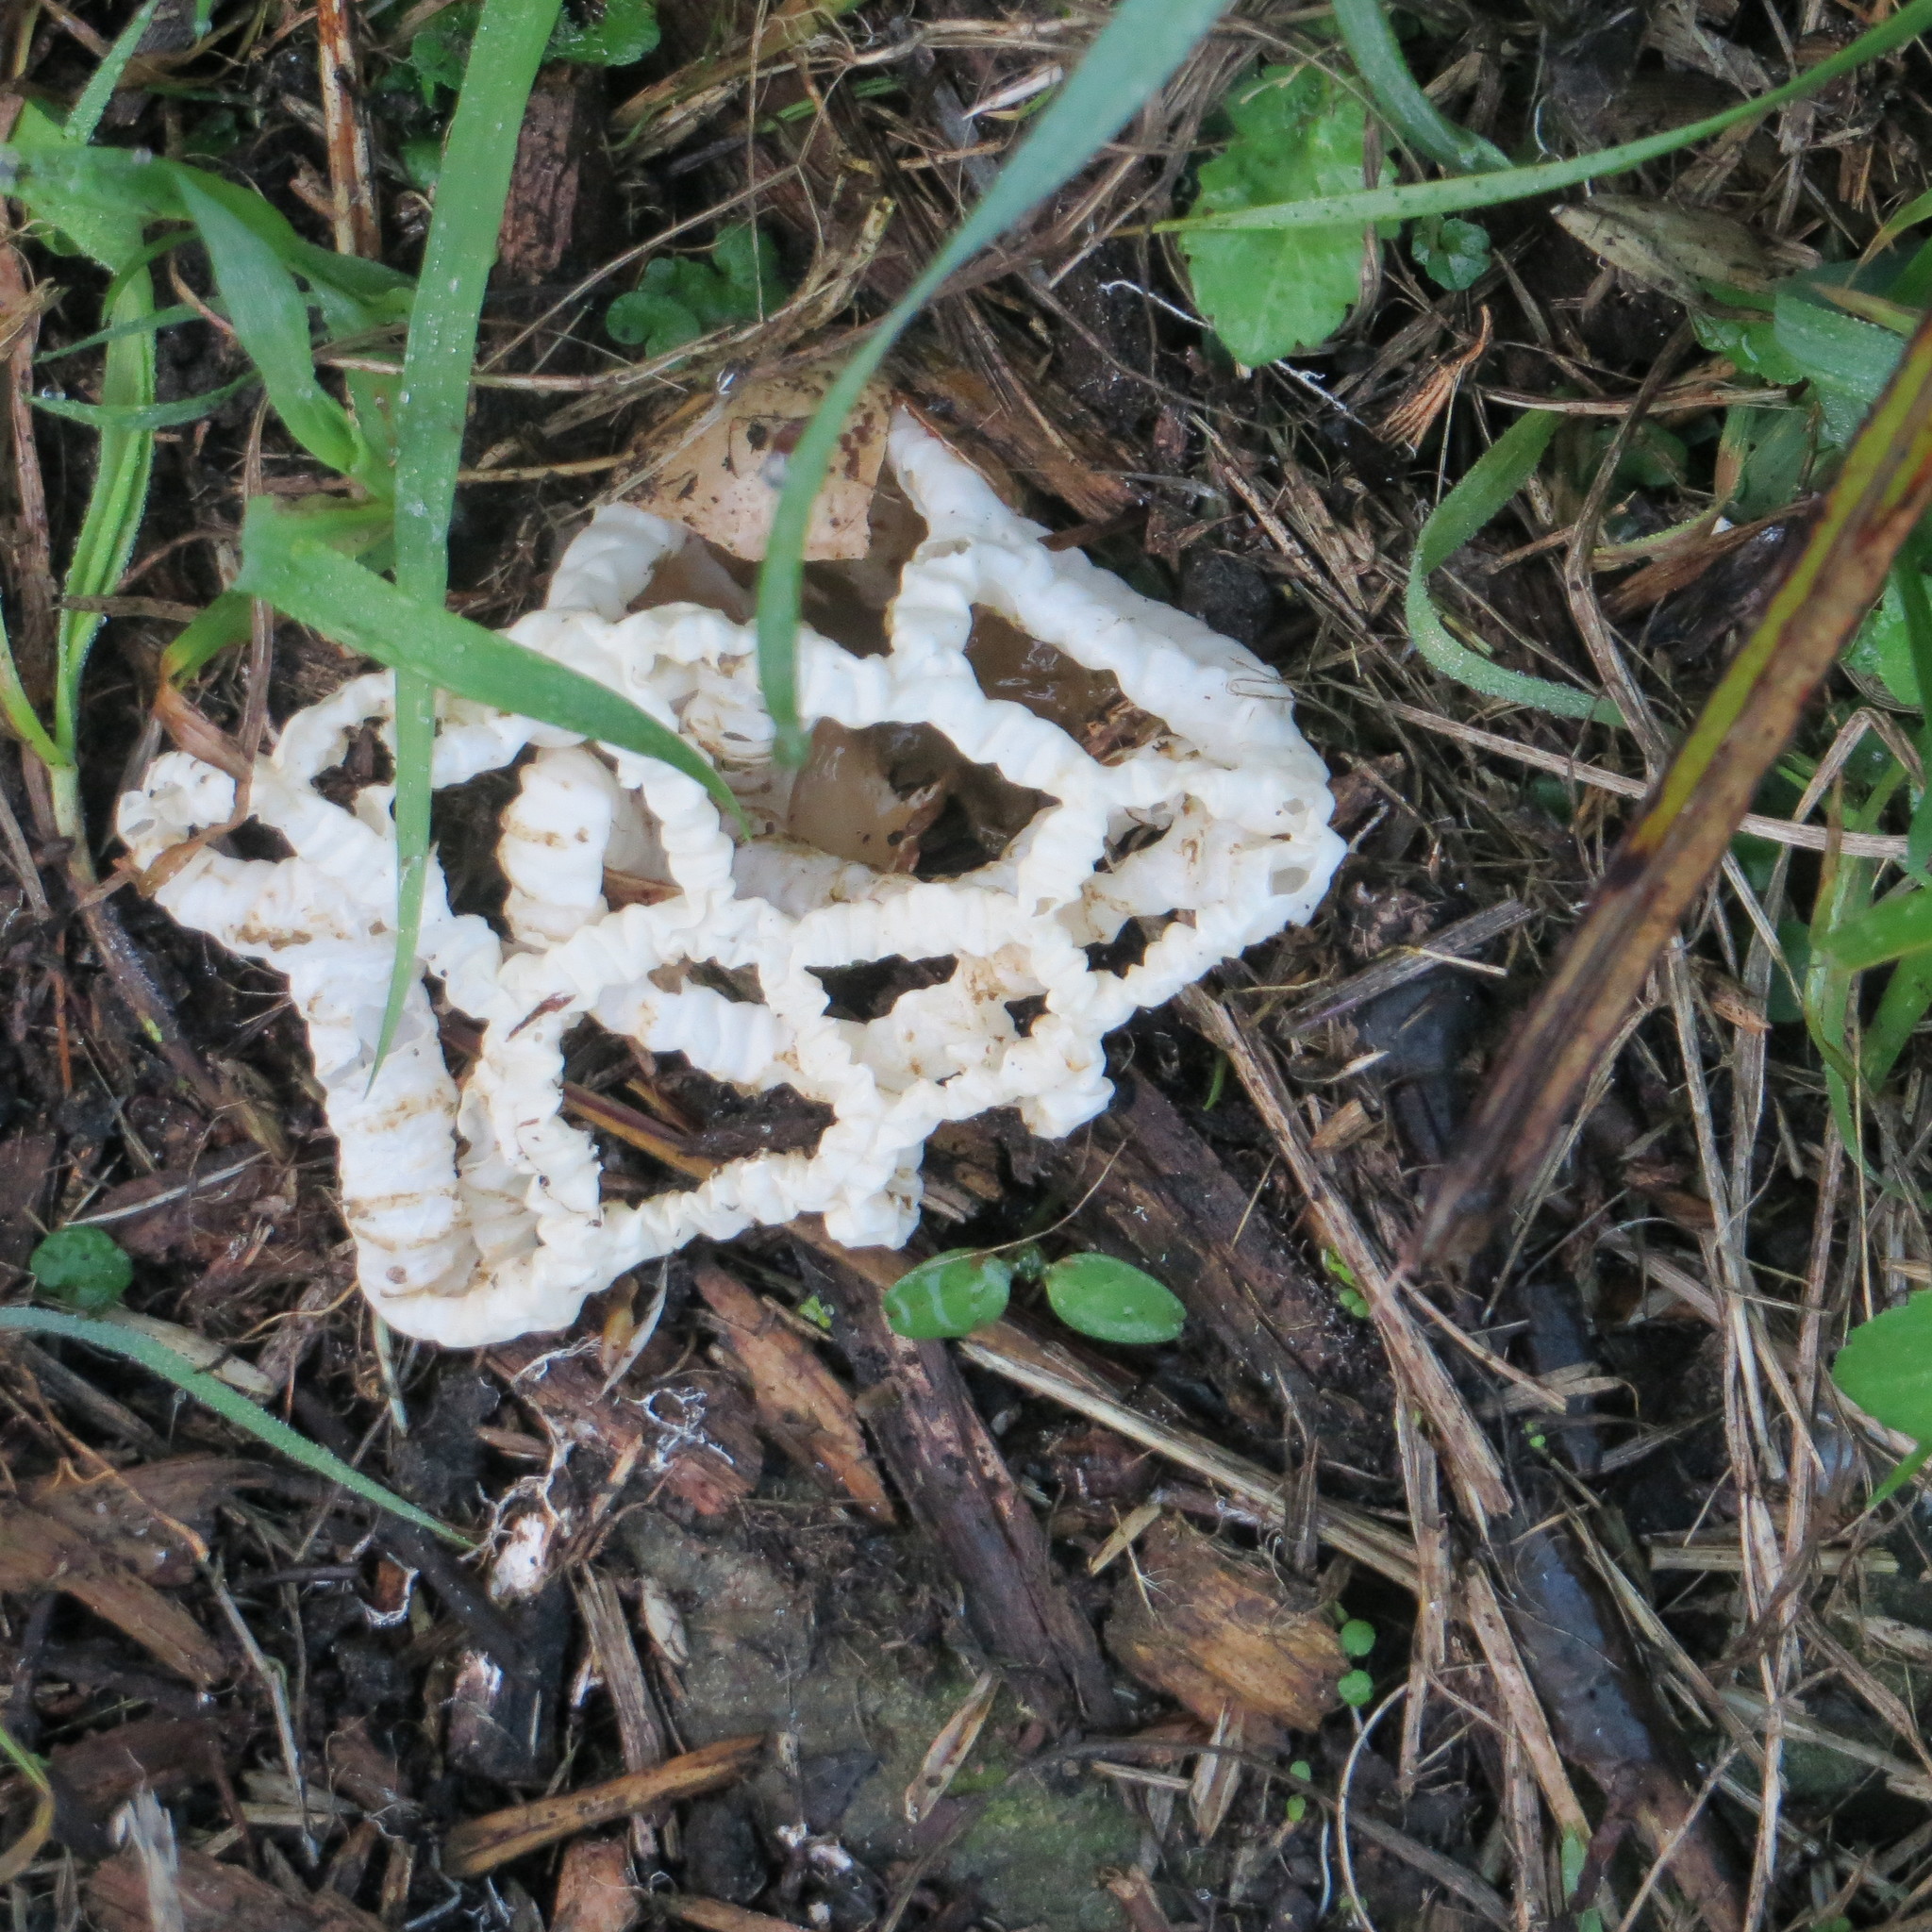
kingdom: Fungi
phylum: Basidiomycota
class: Agaricomycetes
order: Phallales
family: Phallaceae
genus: Ileodictyon
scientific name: Ileodictyon cibarium
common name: Basket fungus
